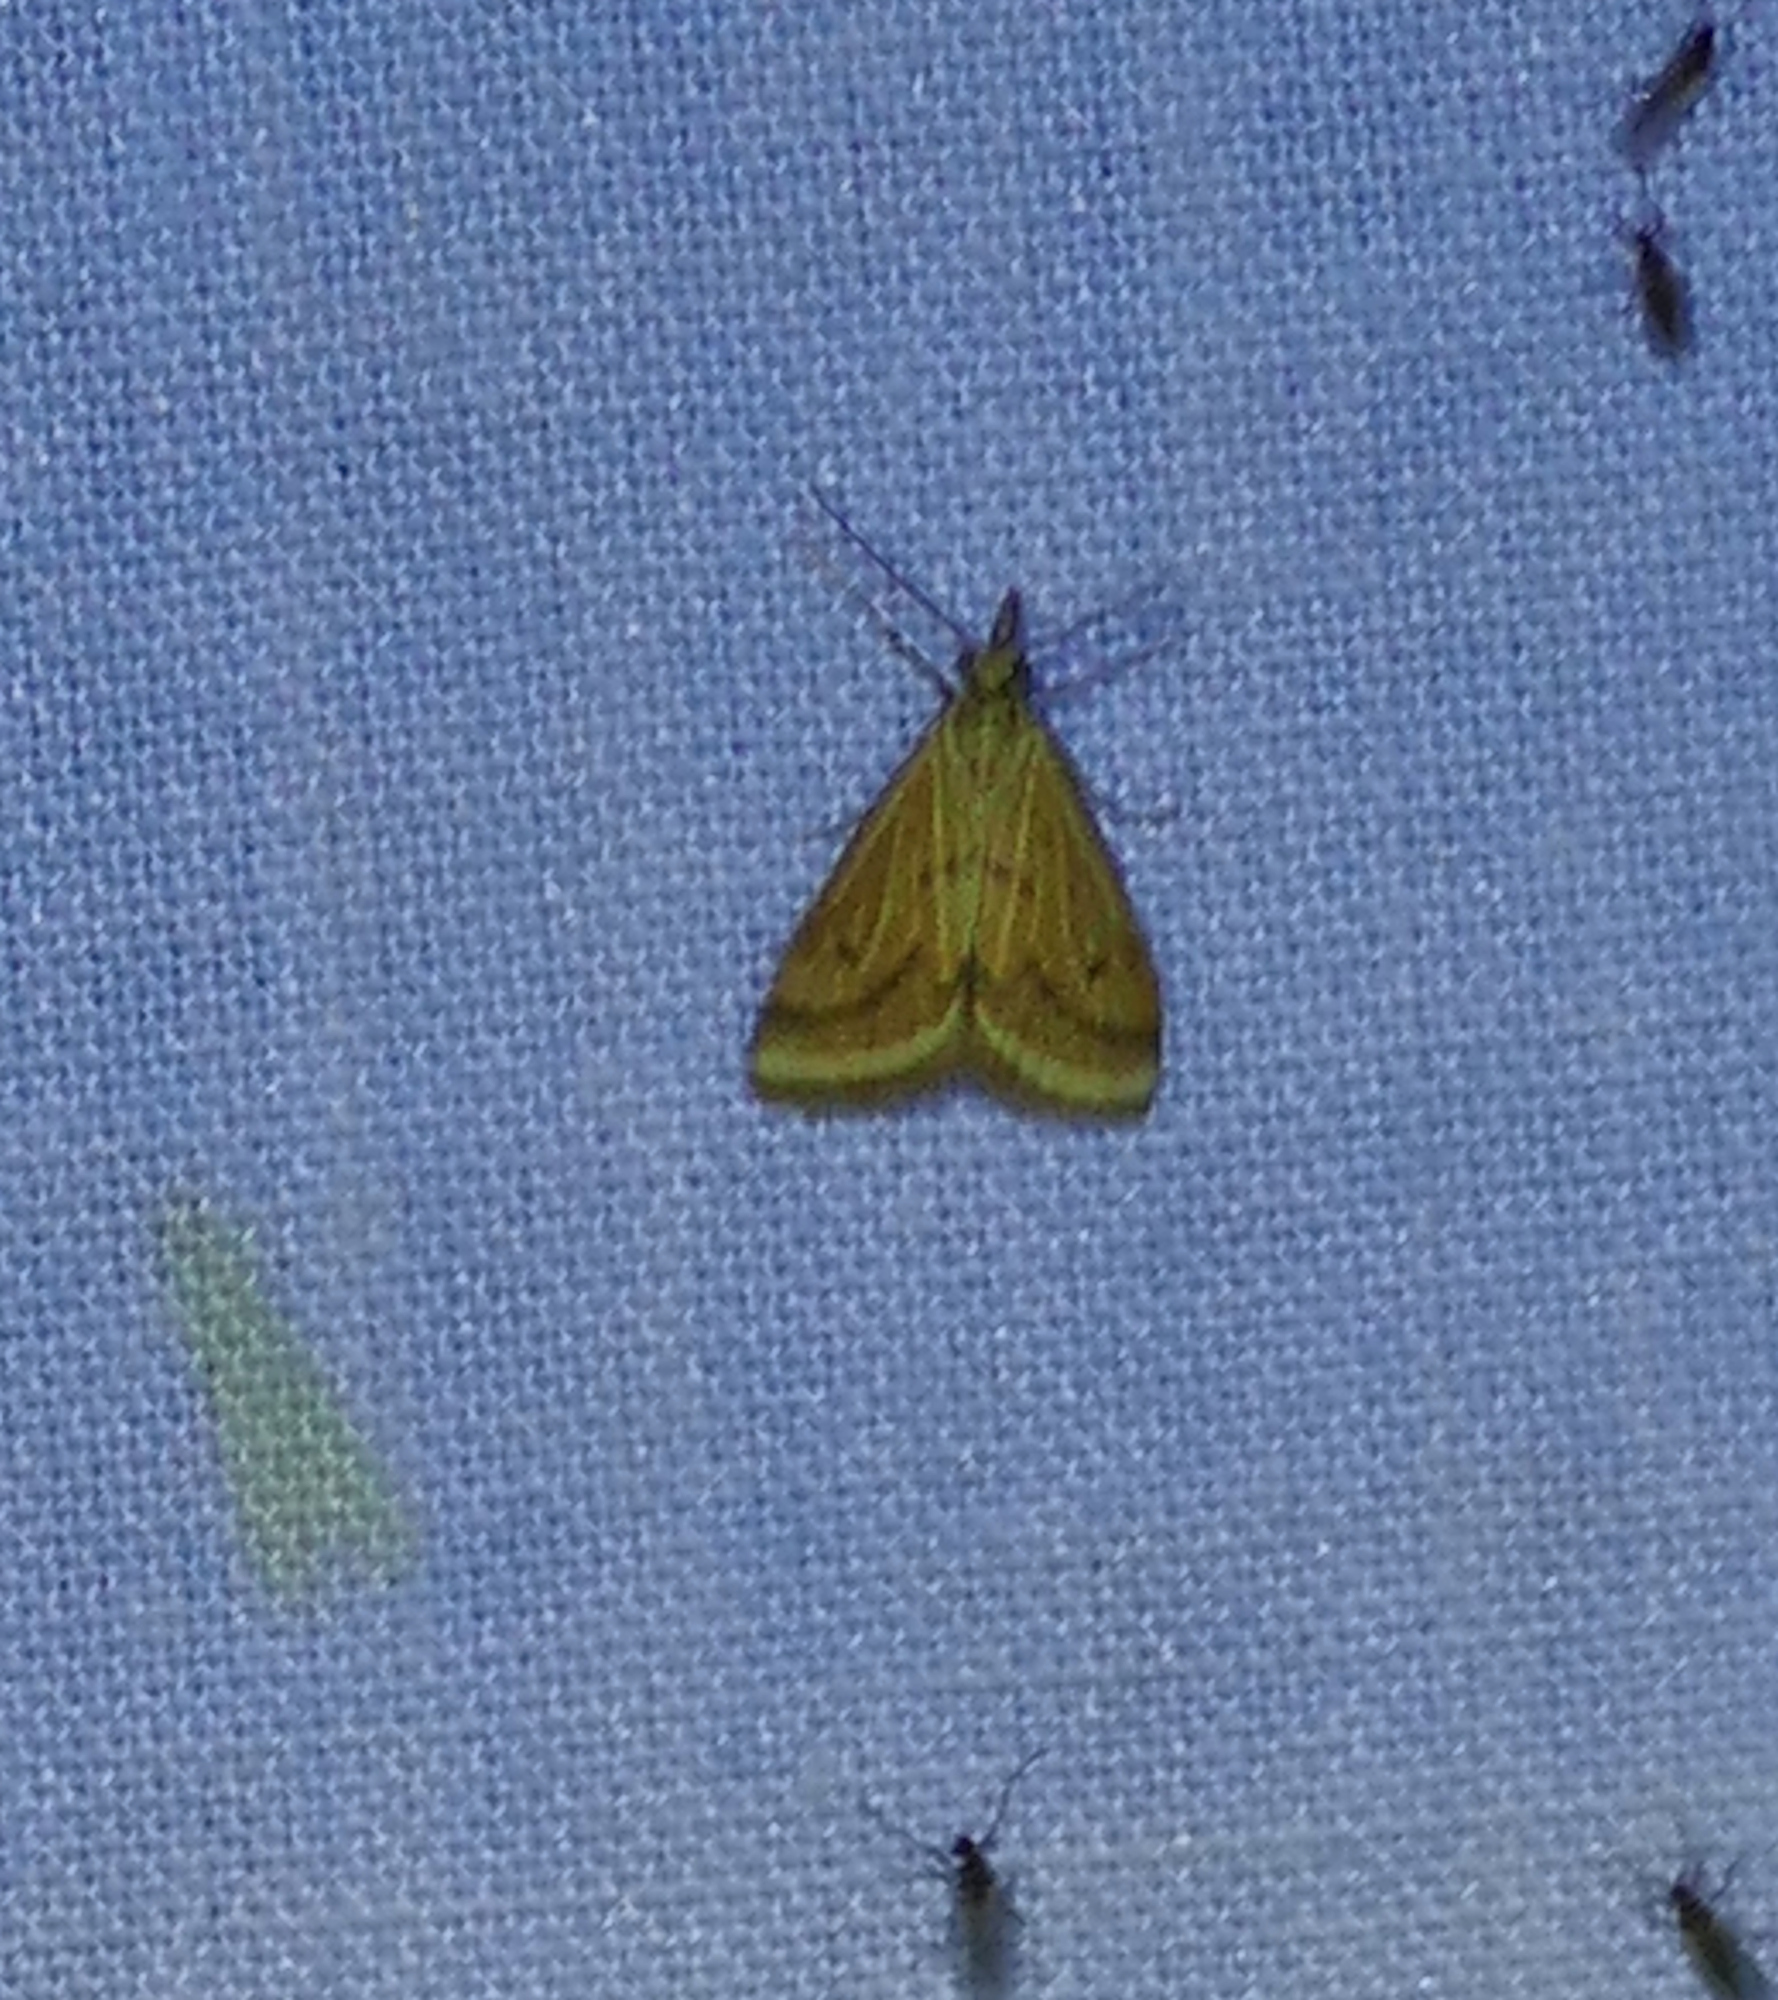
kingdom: Animalia
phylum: Arthropoda
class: Insecta
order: Lepidoptera
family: Crambidae
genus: Microtheoris
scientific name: Microtheoris ophionalis
